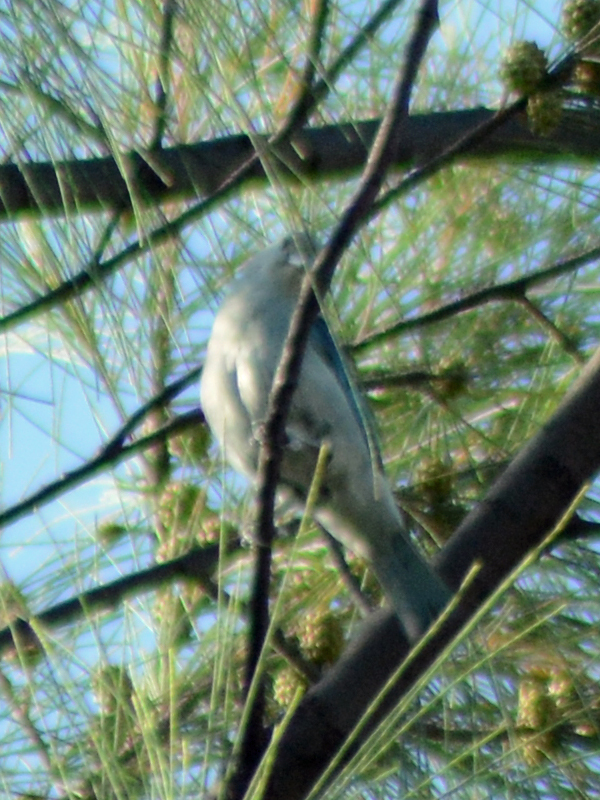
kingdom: Animalia
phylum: Chordata
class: Aves
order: Passeriformes
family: Thraupidae
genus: Thraupis
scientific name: Thraupis episcopus
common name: Blue-grey tanager
